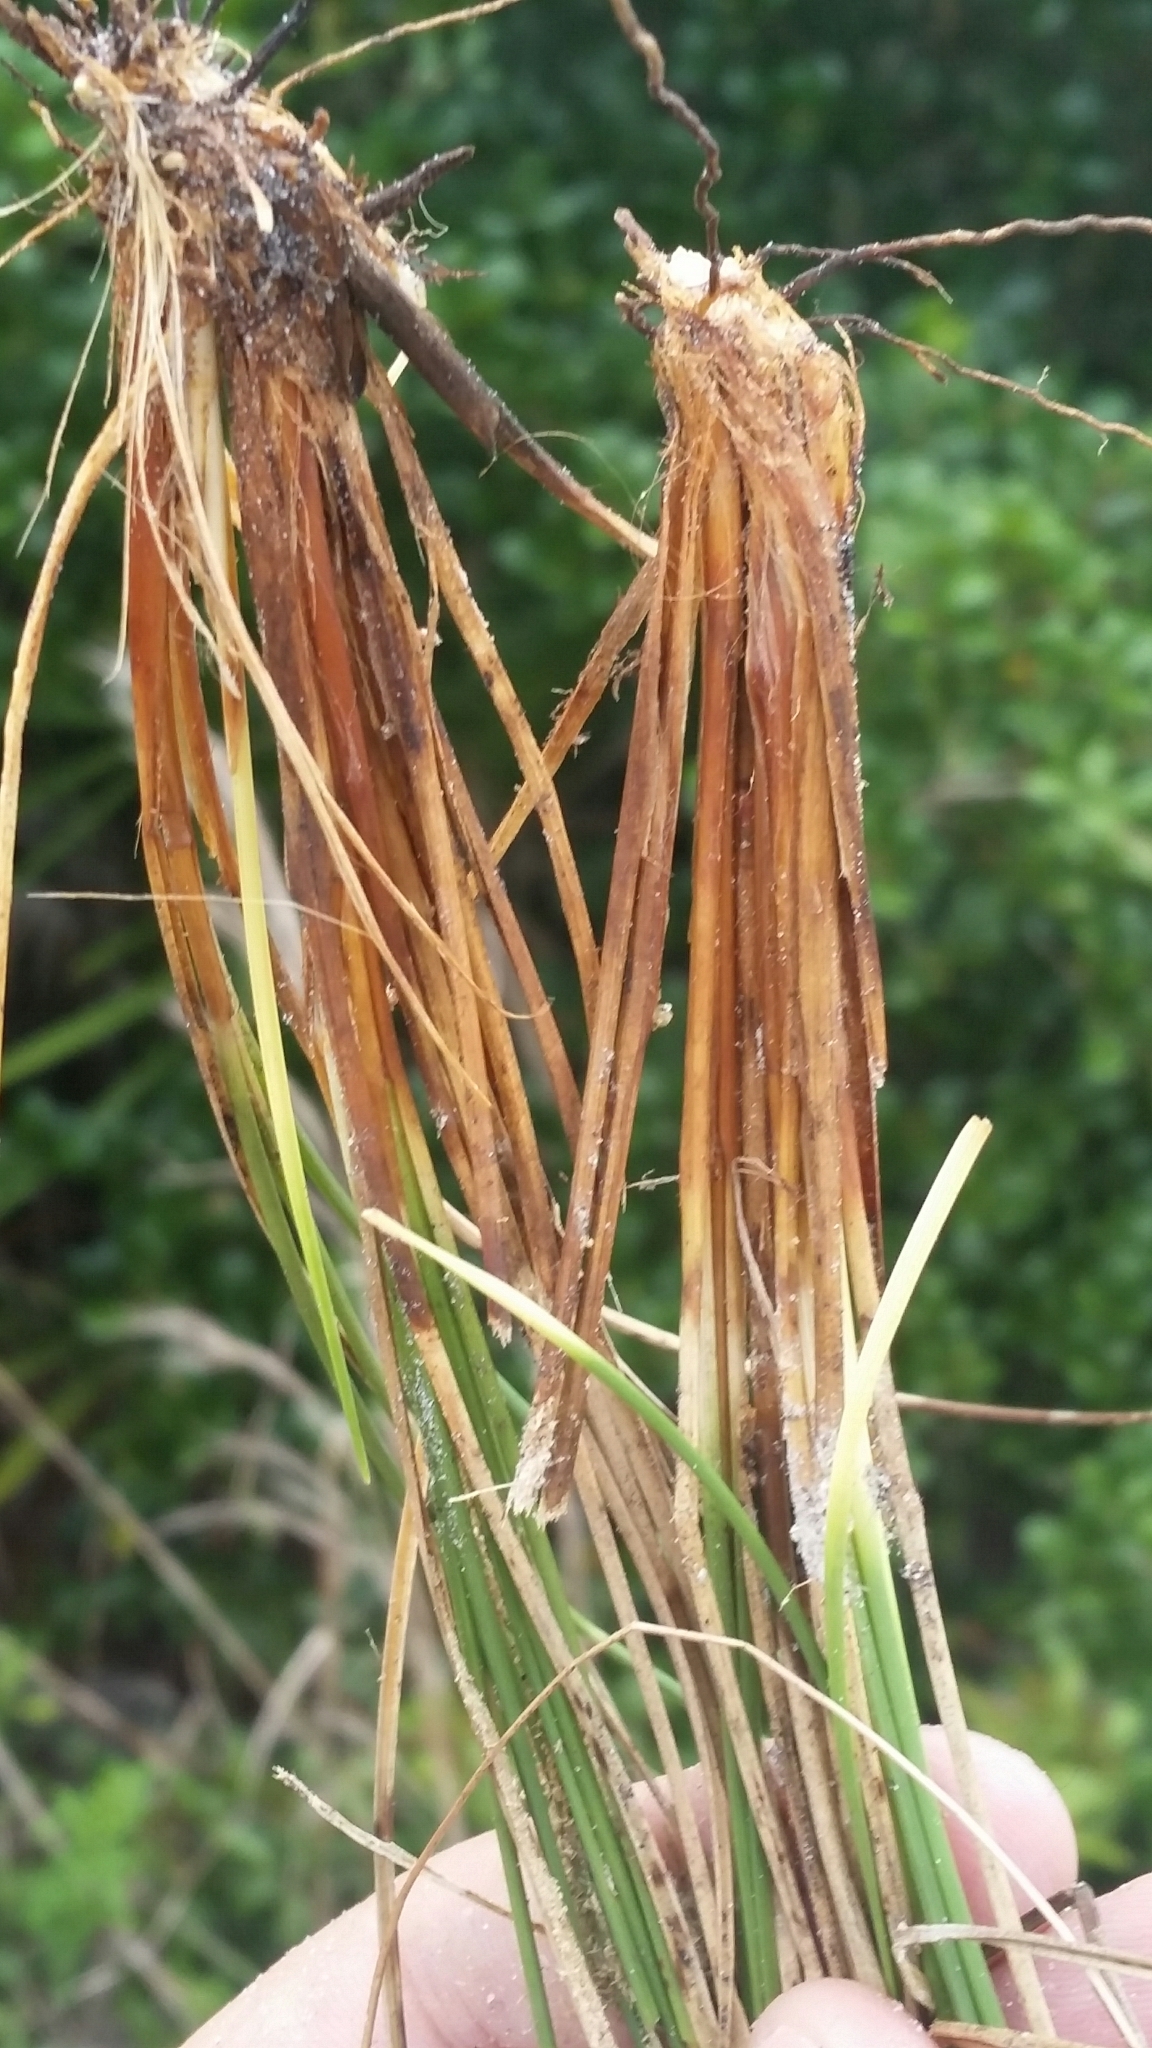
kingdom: Plantae
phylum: Tracheophyta
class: Liliopsida
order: Poales
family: Cyperaceae
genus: Rhynchospora
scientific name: Rhynchospora intermedia
